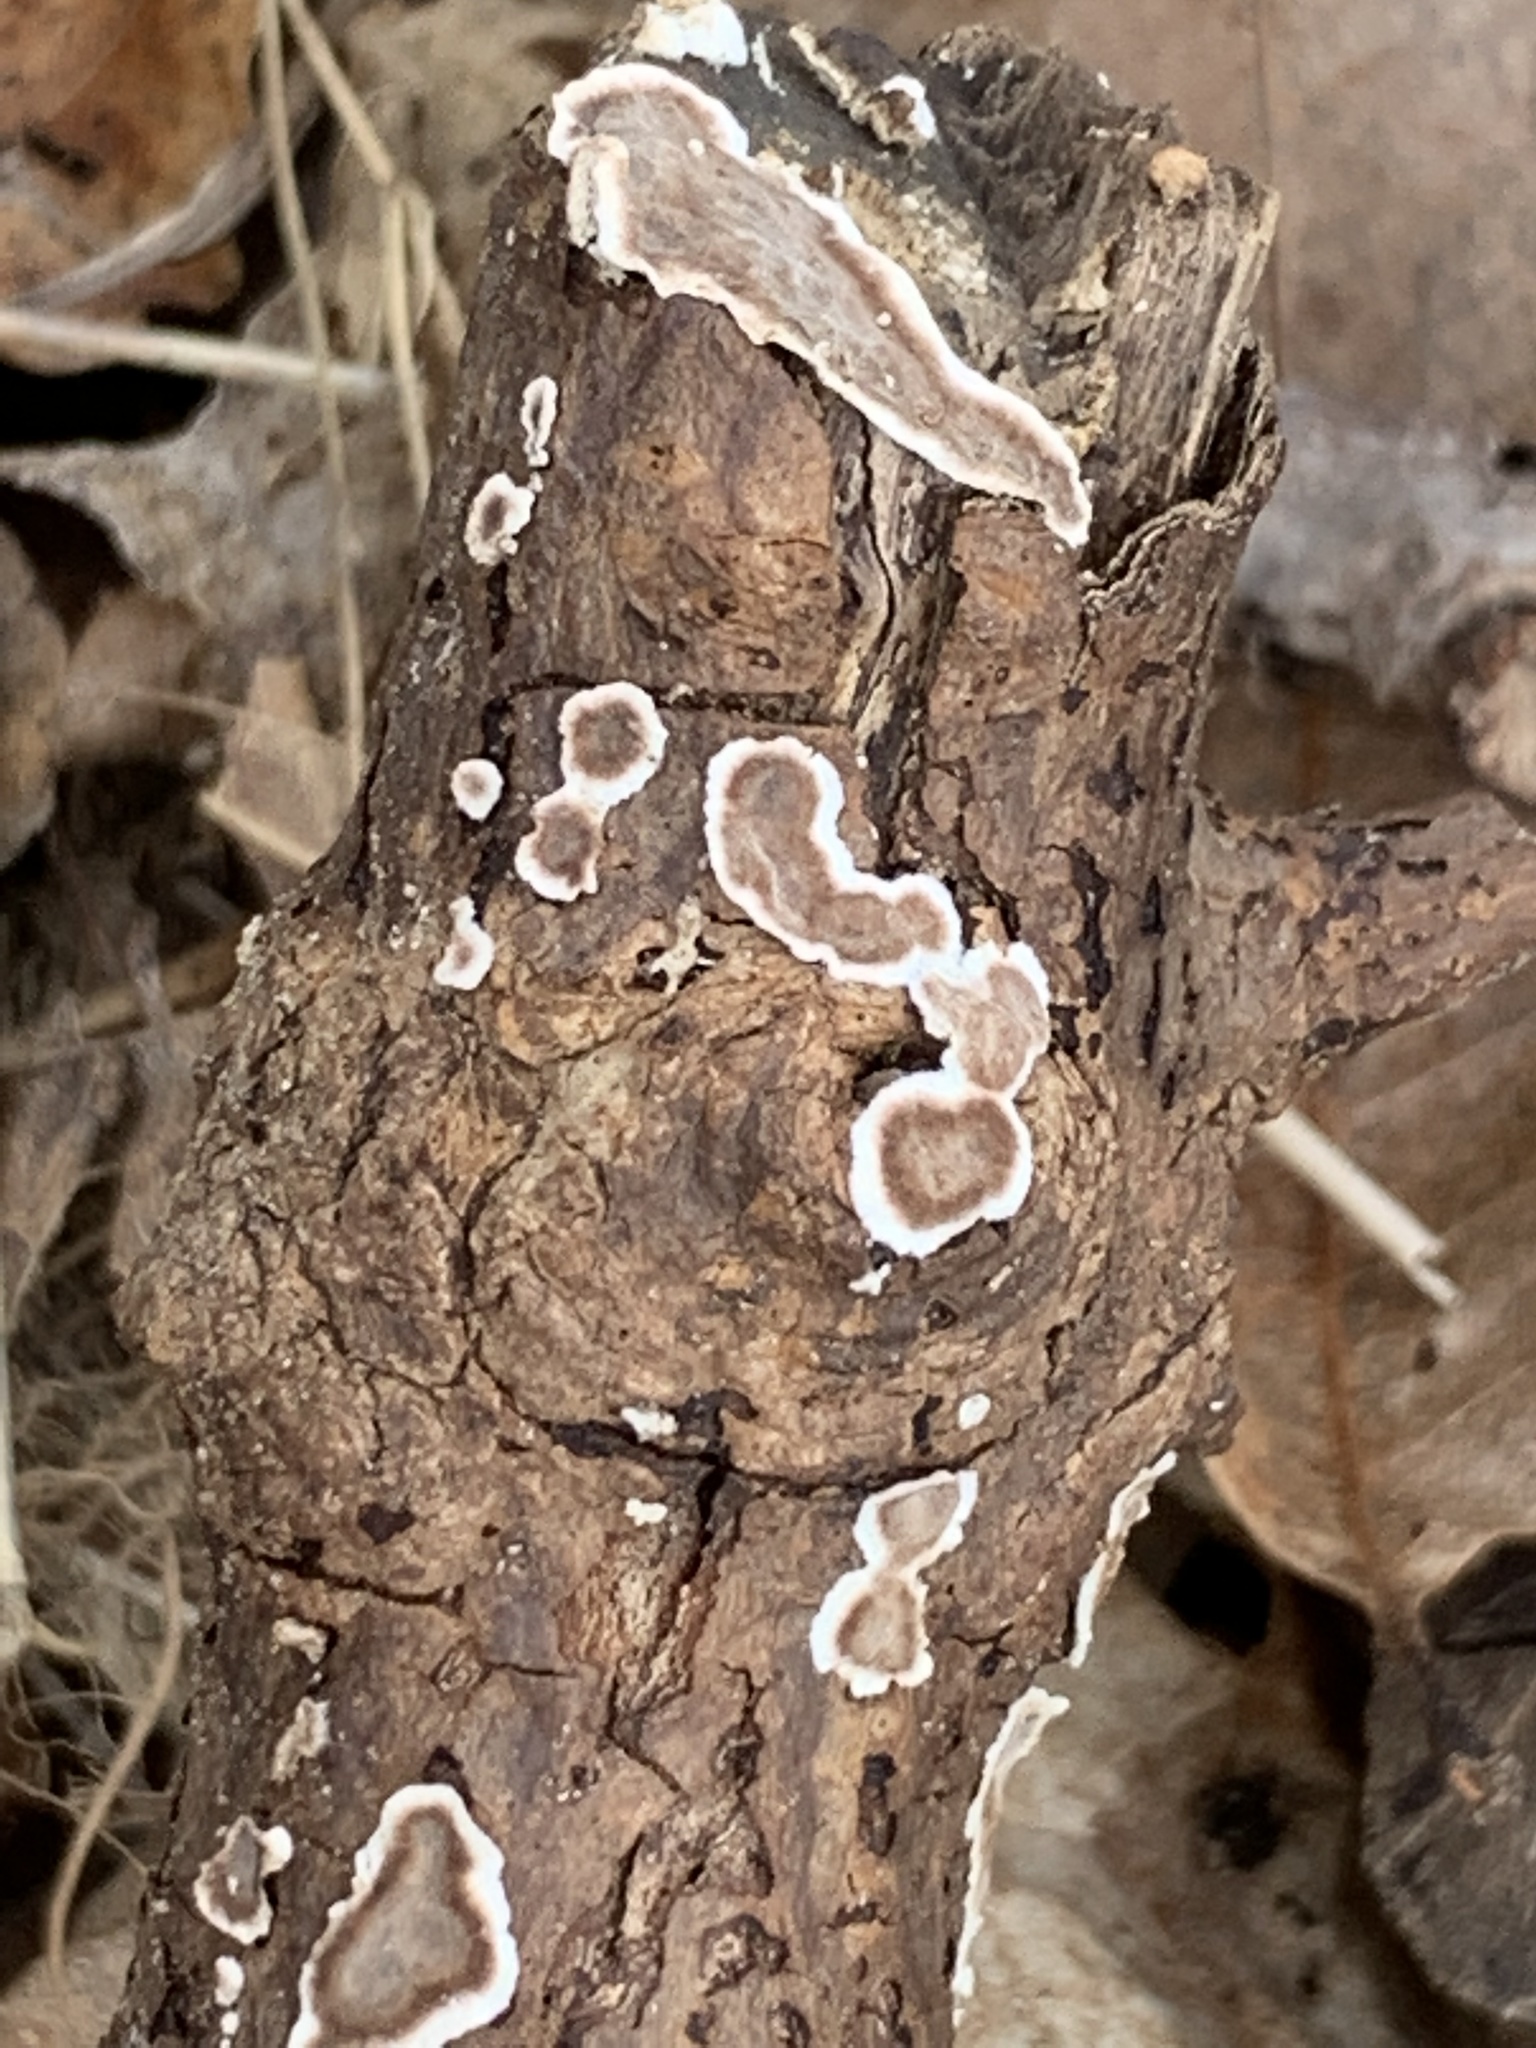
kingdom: Fungi
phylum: Basidiomycota
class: Agaricomycetes
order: Russulales
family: Peniophoraceae
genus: Peniophora
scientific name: Peniophora albobadia
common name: Giraffe spots
